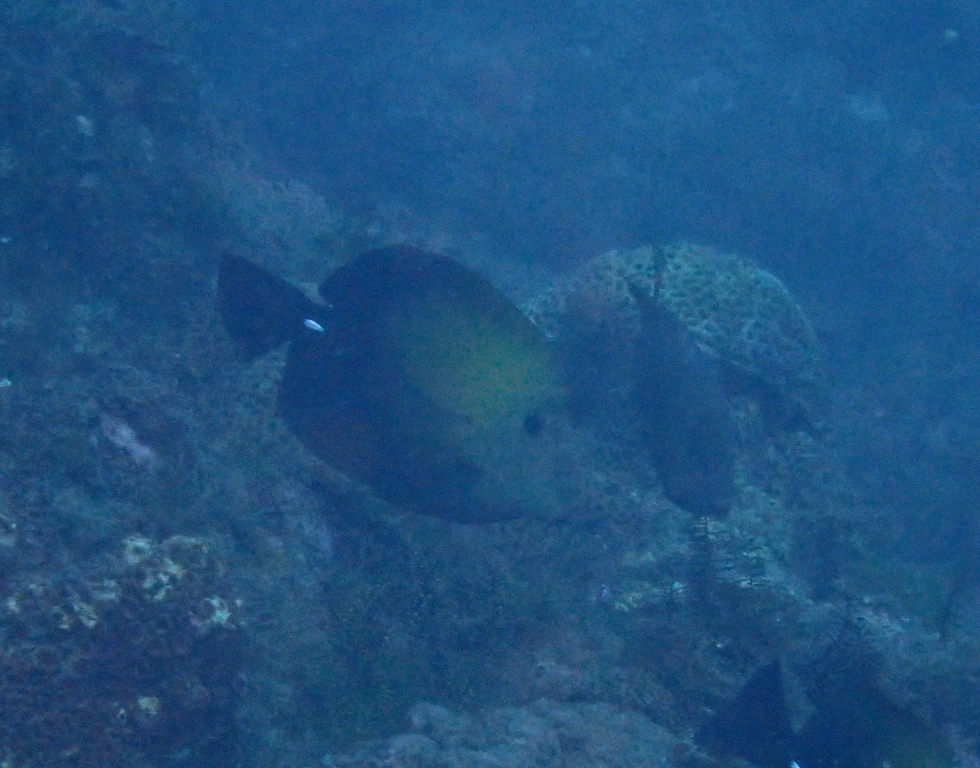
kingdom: Animalia
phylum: Chordata
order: Perciformes
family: Acanthuridae
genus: Zebrasoma
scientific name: Zebrasoma scopas
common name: Twotone tang
